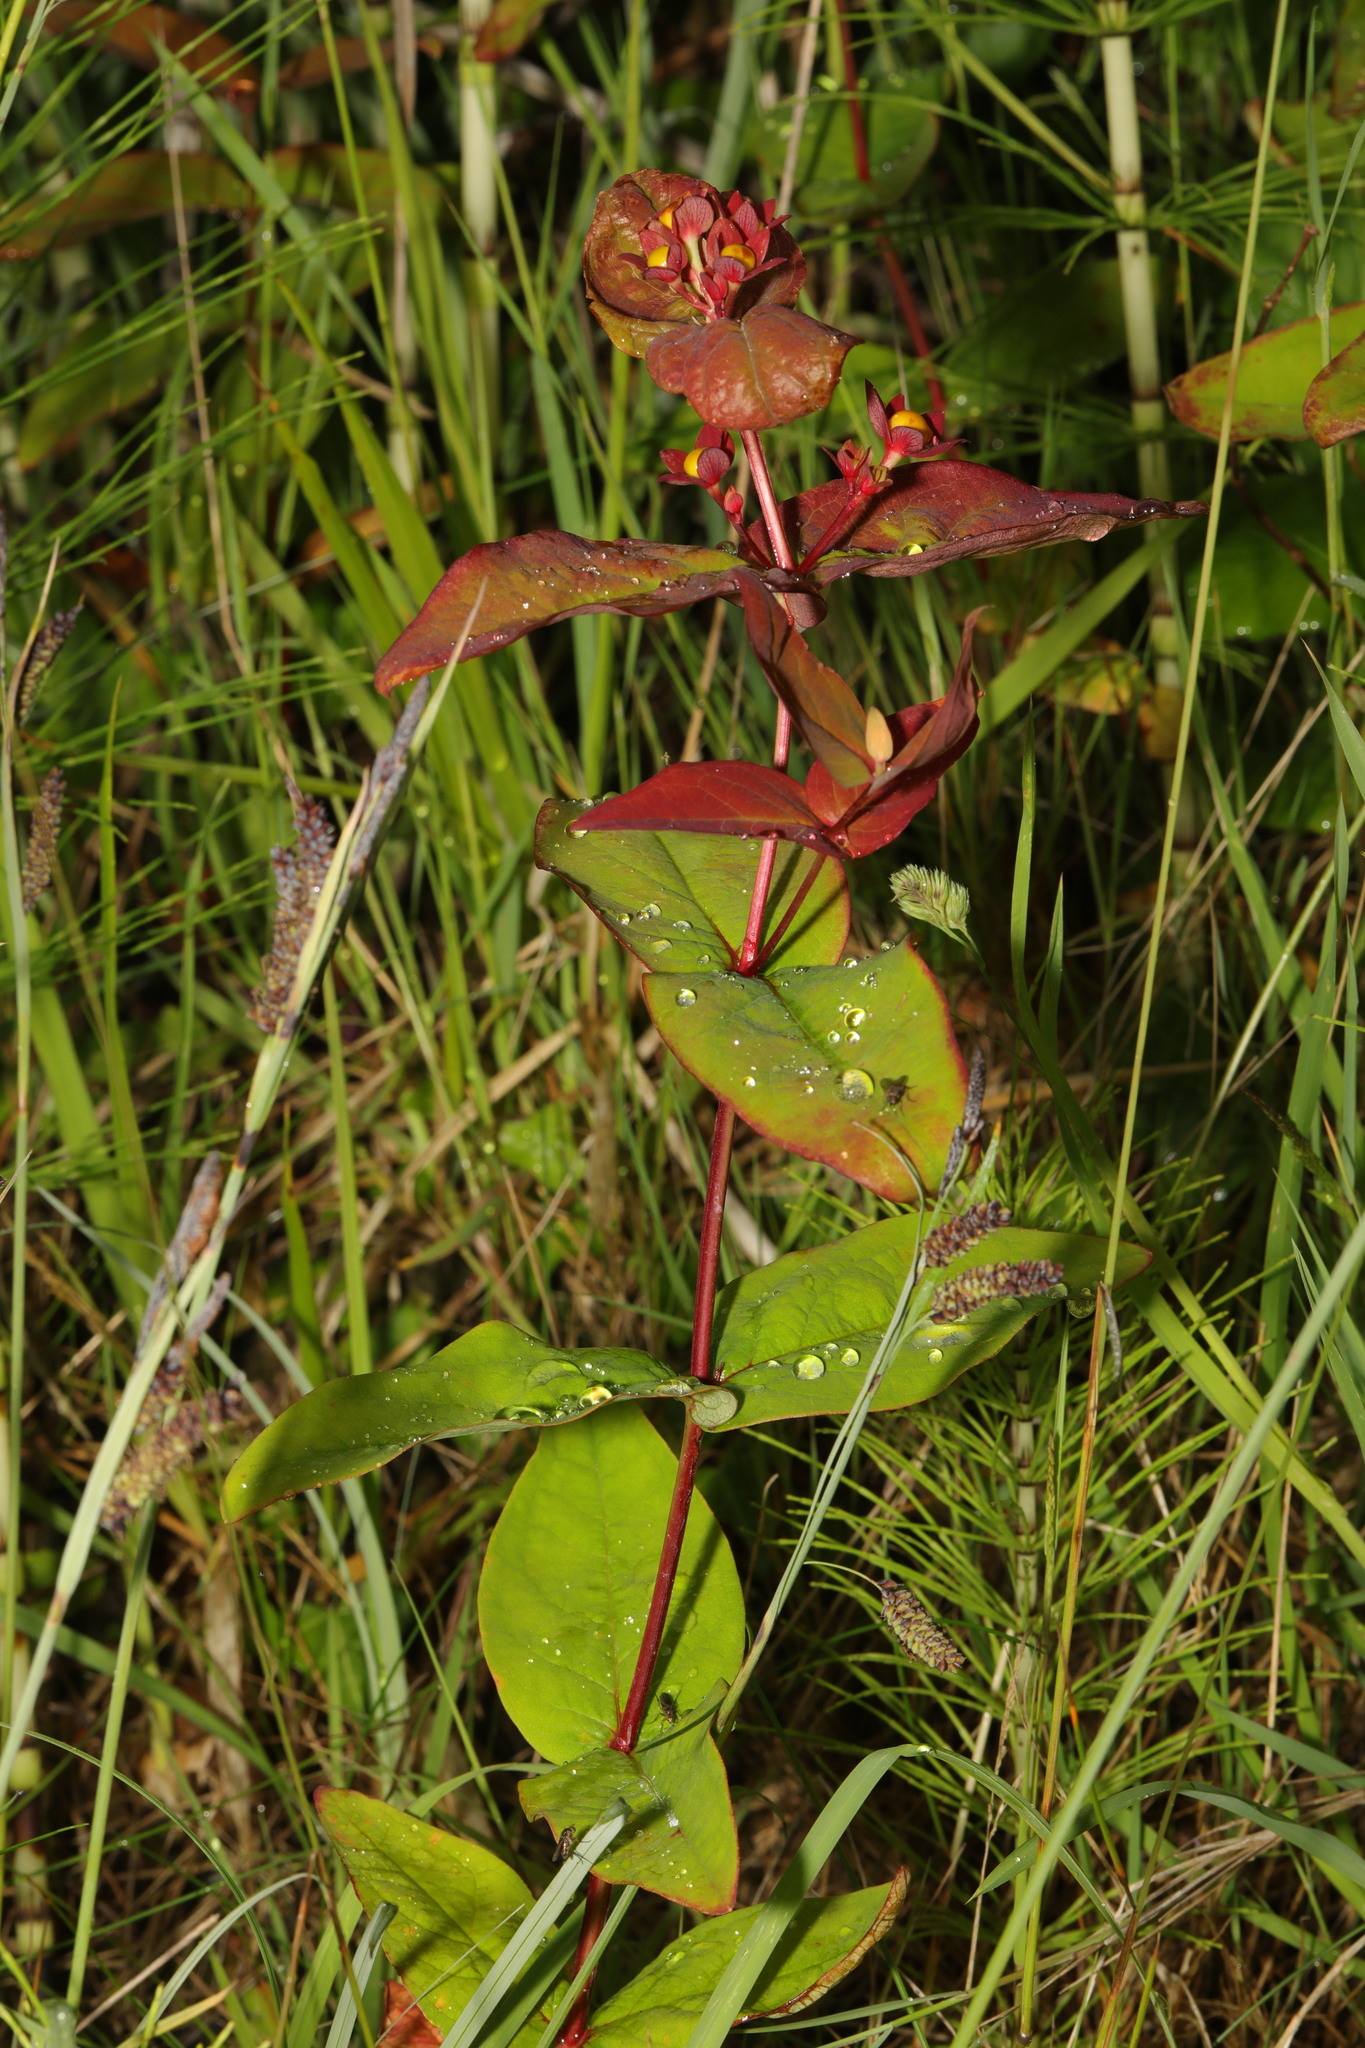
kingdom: Plantae
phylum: Tracheophyta
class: Magnoliopsida
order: Malpighiales
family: Hypericaceae
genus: Hypericum
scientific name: Hypericum androsaemum
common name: Sweet-amber
